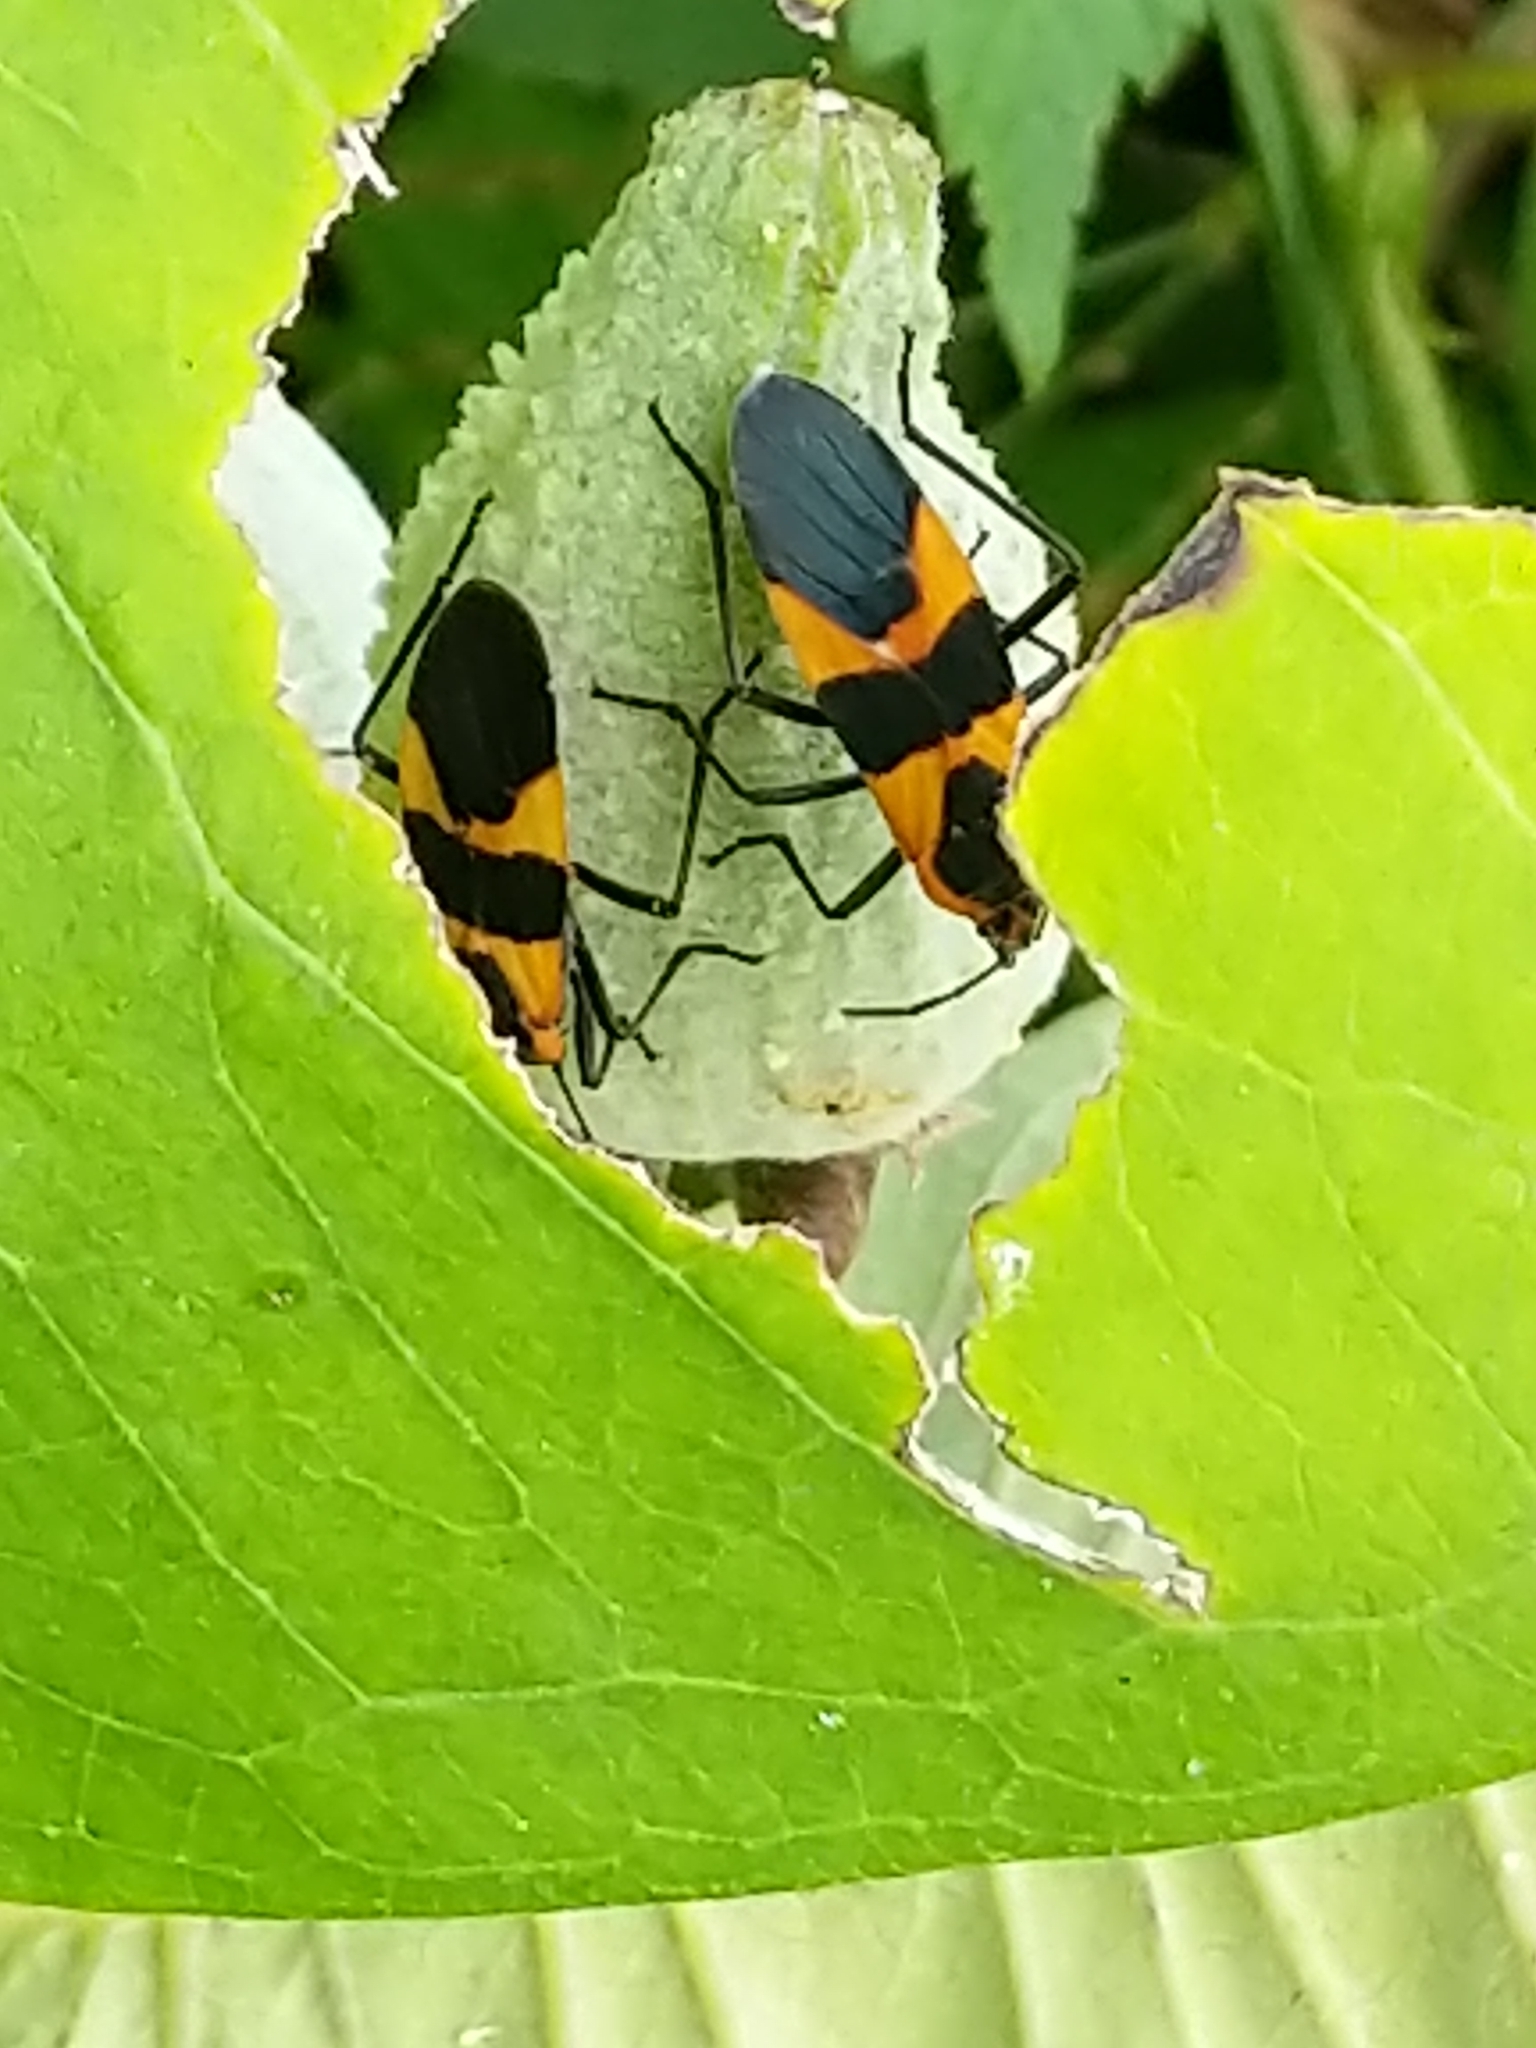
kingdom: Animalia
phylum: Arthropoda
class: Insecta
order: Hemiptera
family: Lygaeidae
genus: Oncopeltus
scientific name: Oncopeltus fasciatus
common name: Large milkweed bug
